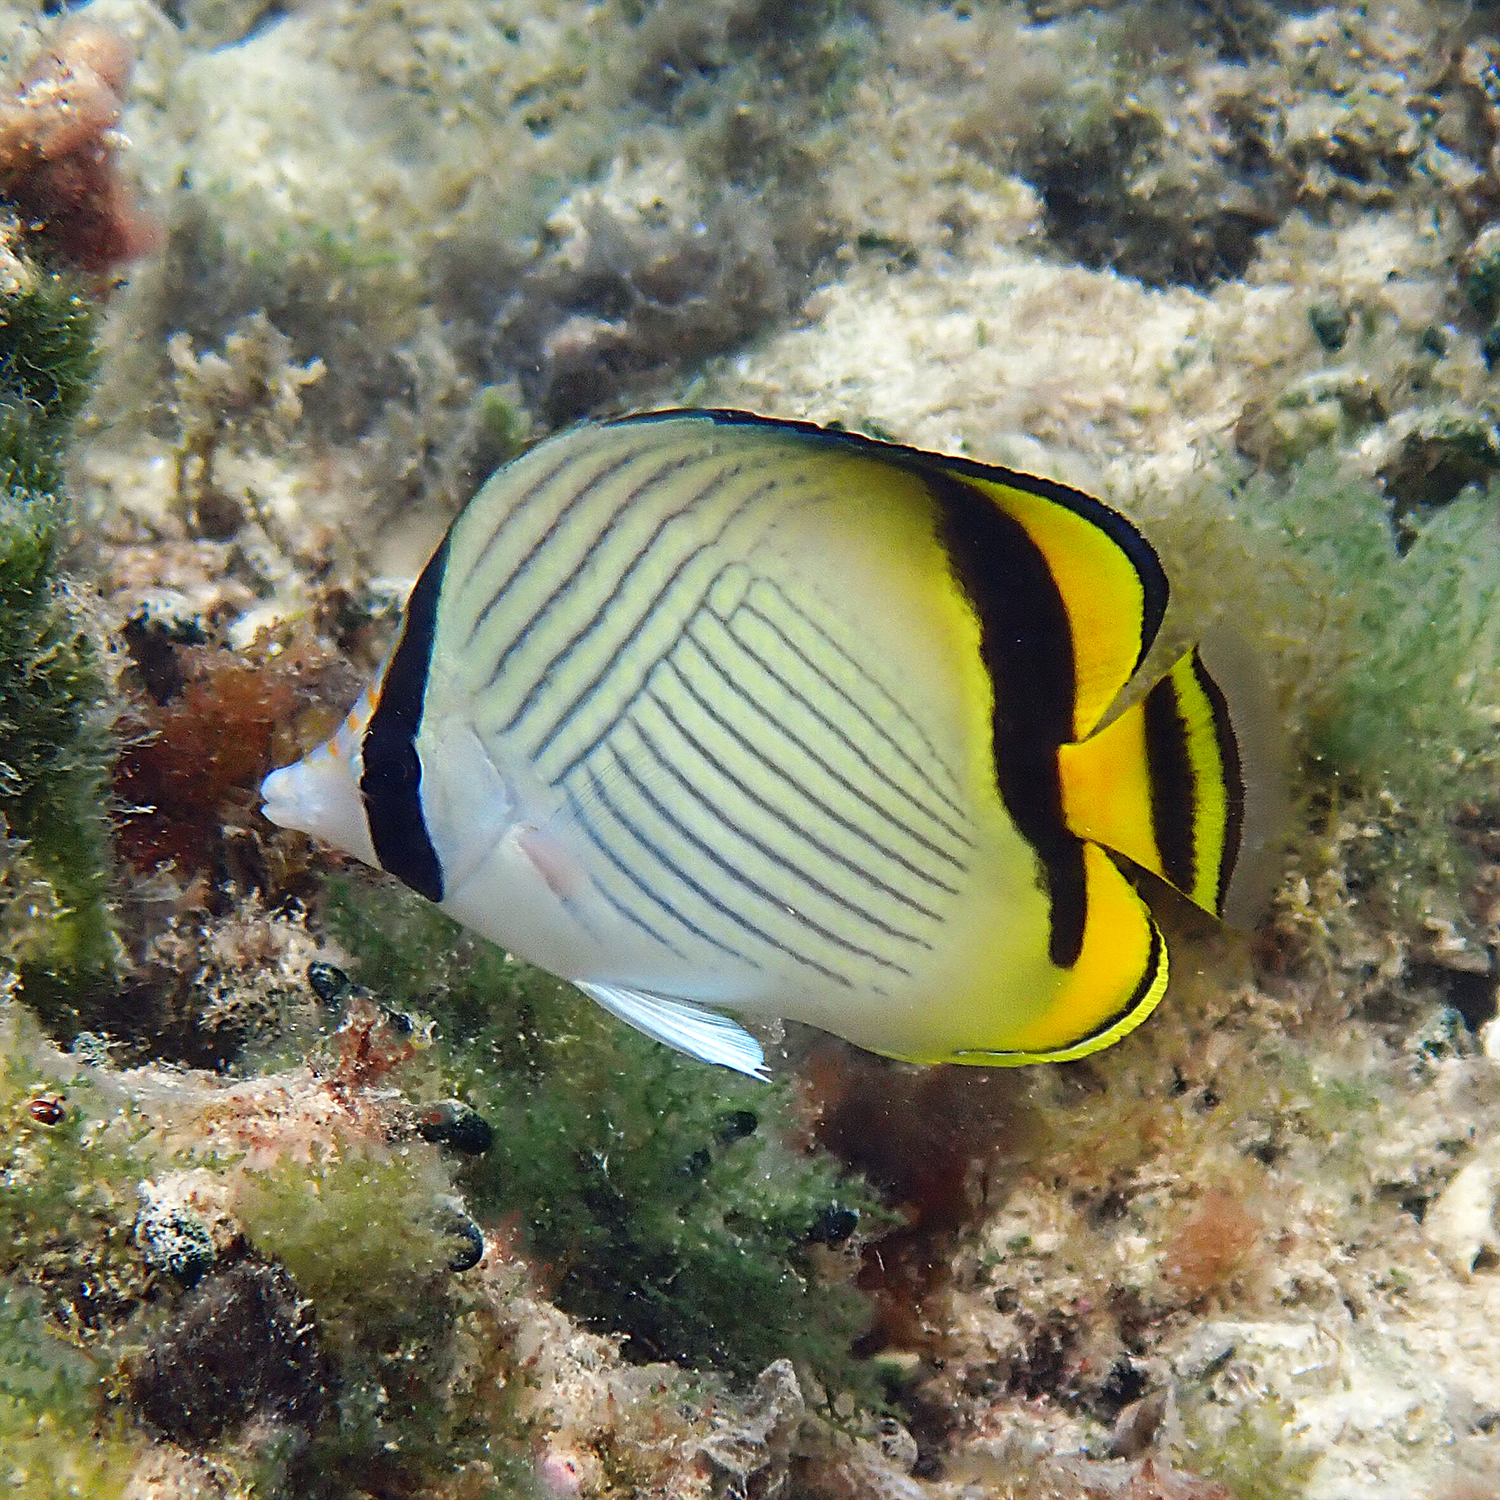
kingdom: Animalia
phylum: Chordata
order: Perciformes
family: Chaetodontidae
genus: Chaetodon
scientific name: Chaetodon vagabundus
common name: Vagabond butterflyfish
